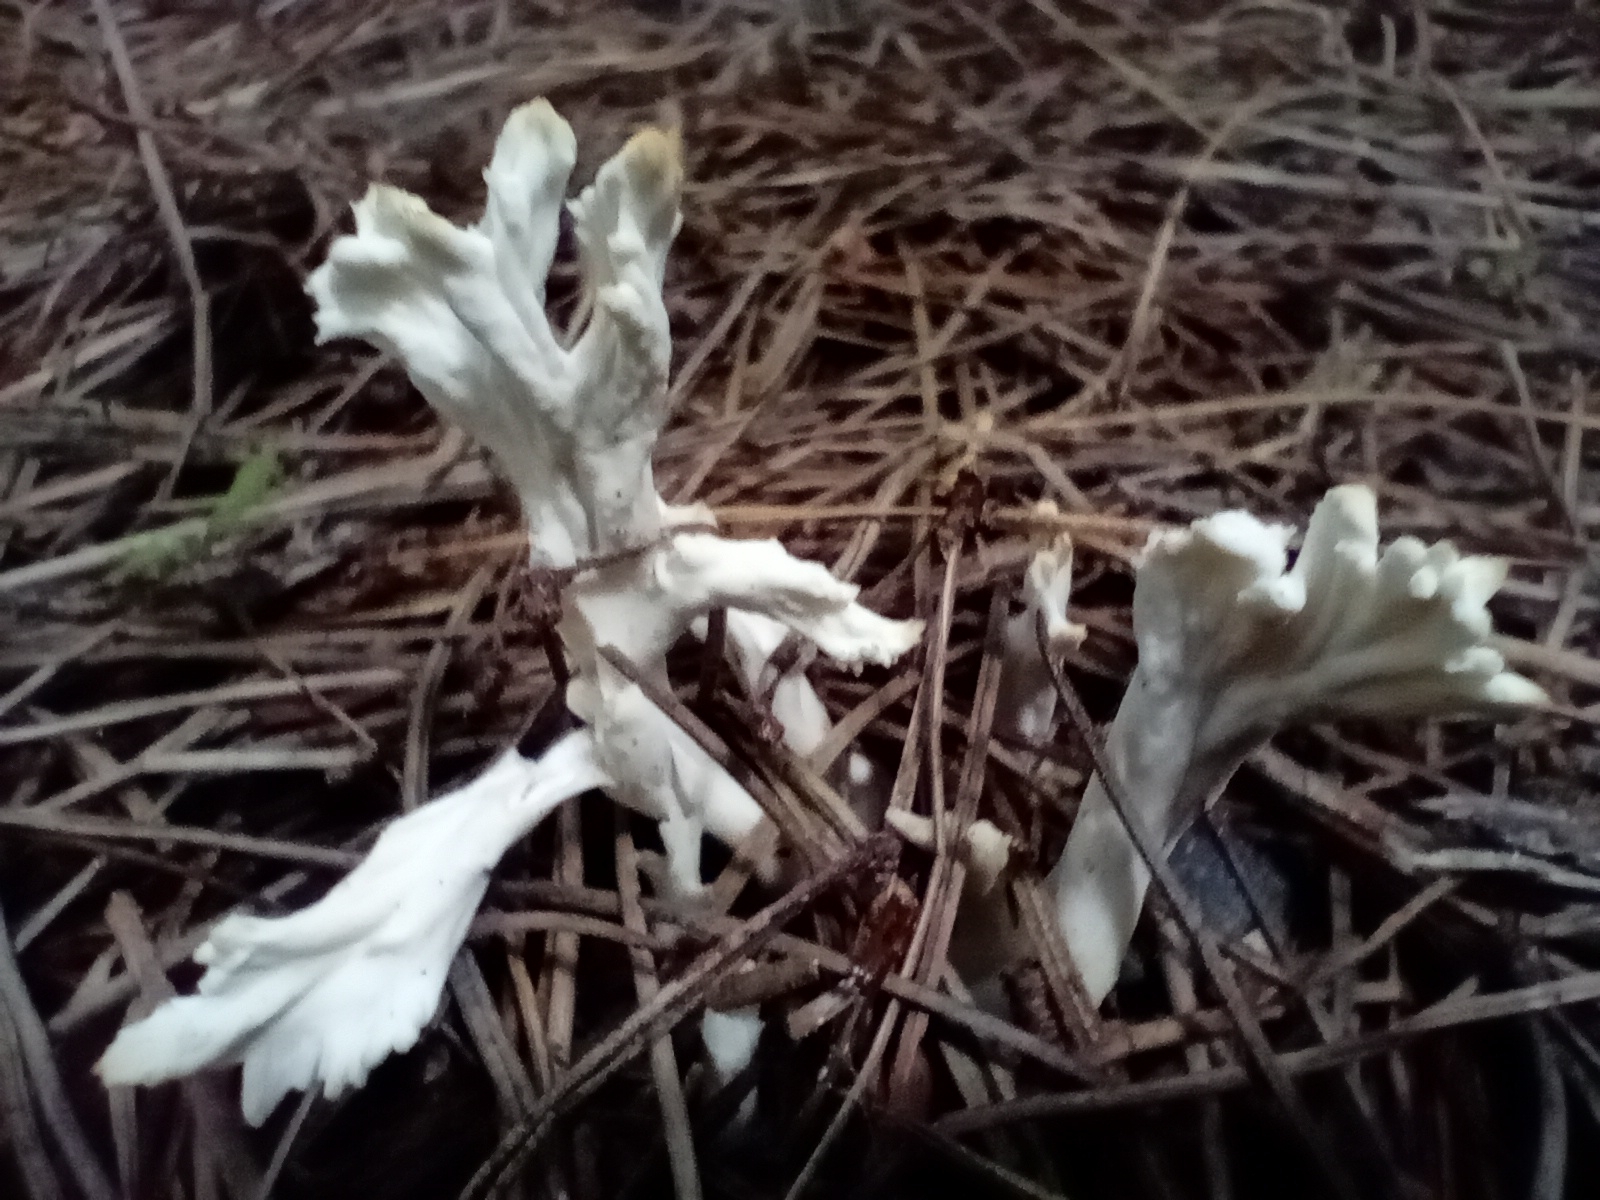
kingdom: Fungi
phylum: Basidiomycota
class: Agaricomycetes
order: Cantharellales
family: Hydnaceae
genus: Clavulina
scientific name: Clavulina rugosa
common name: Wrinkled club
